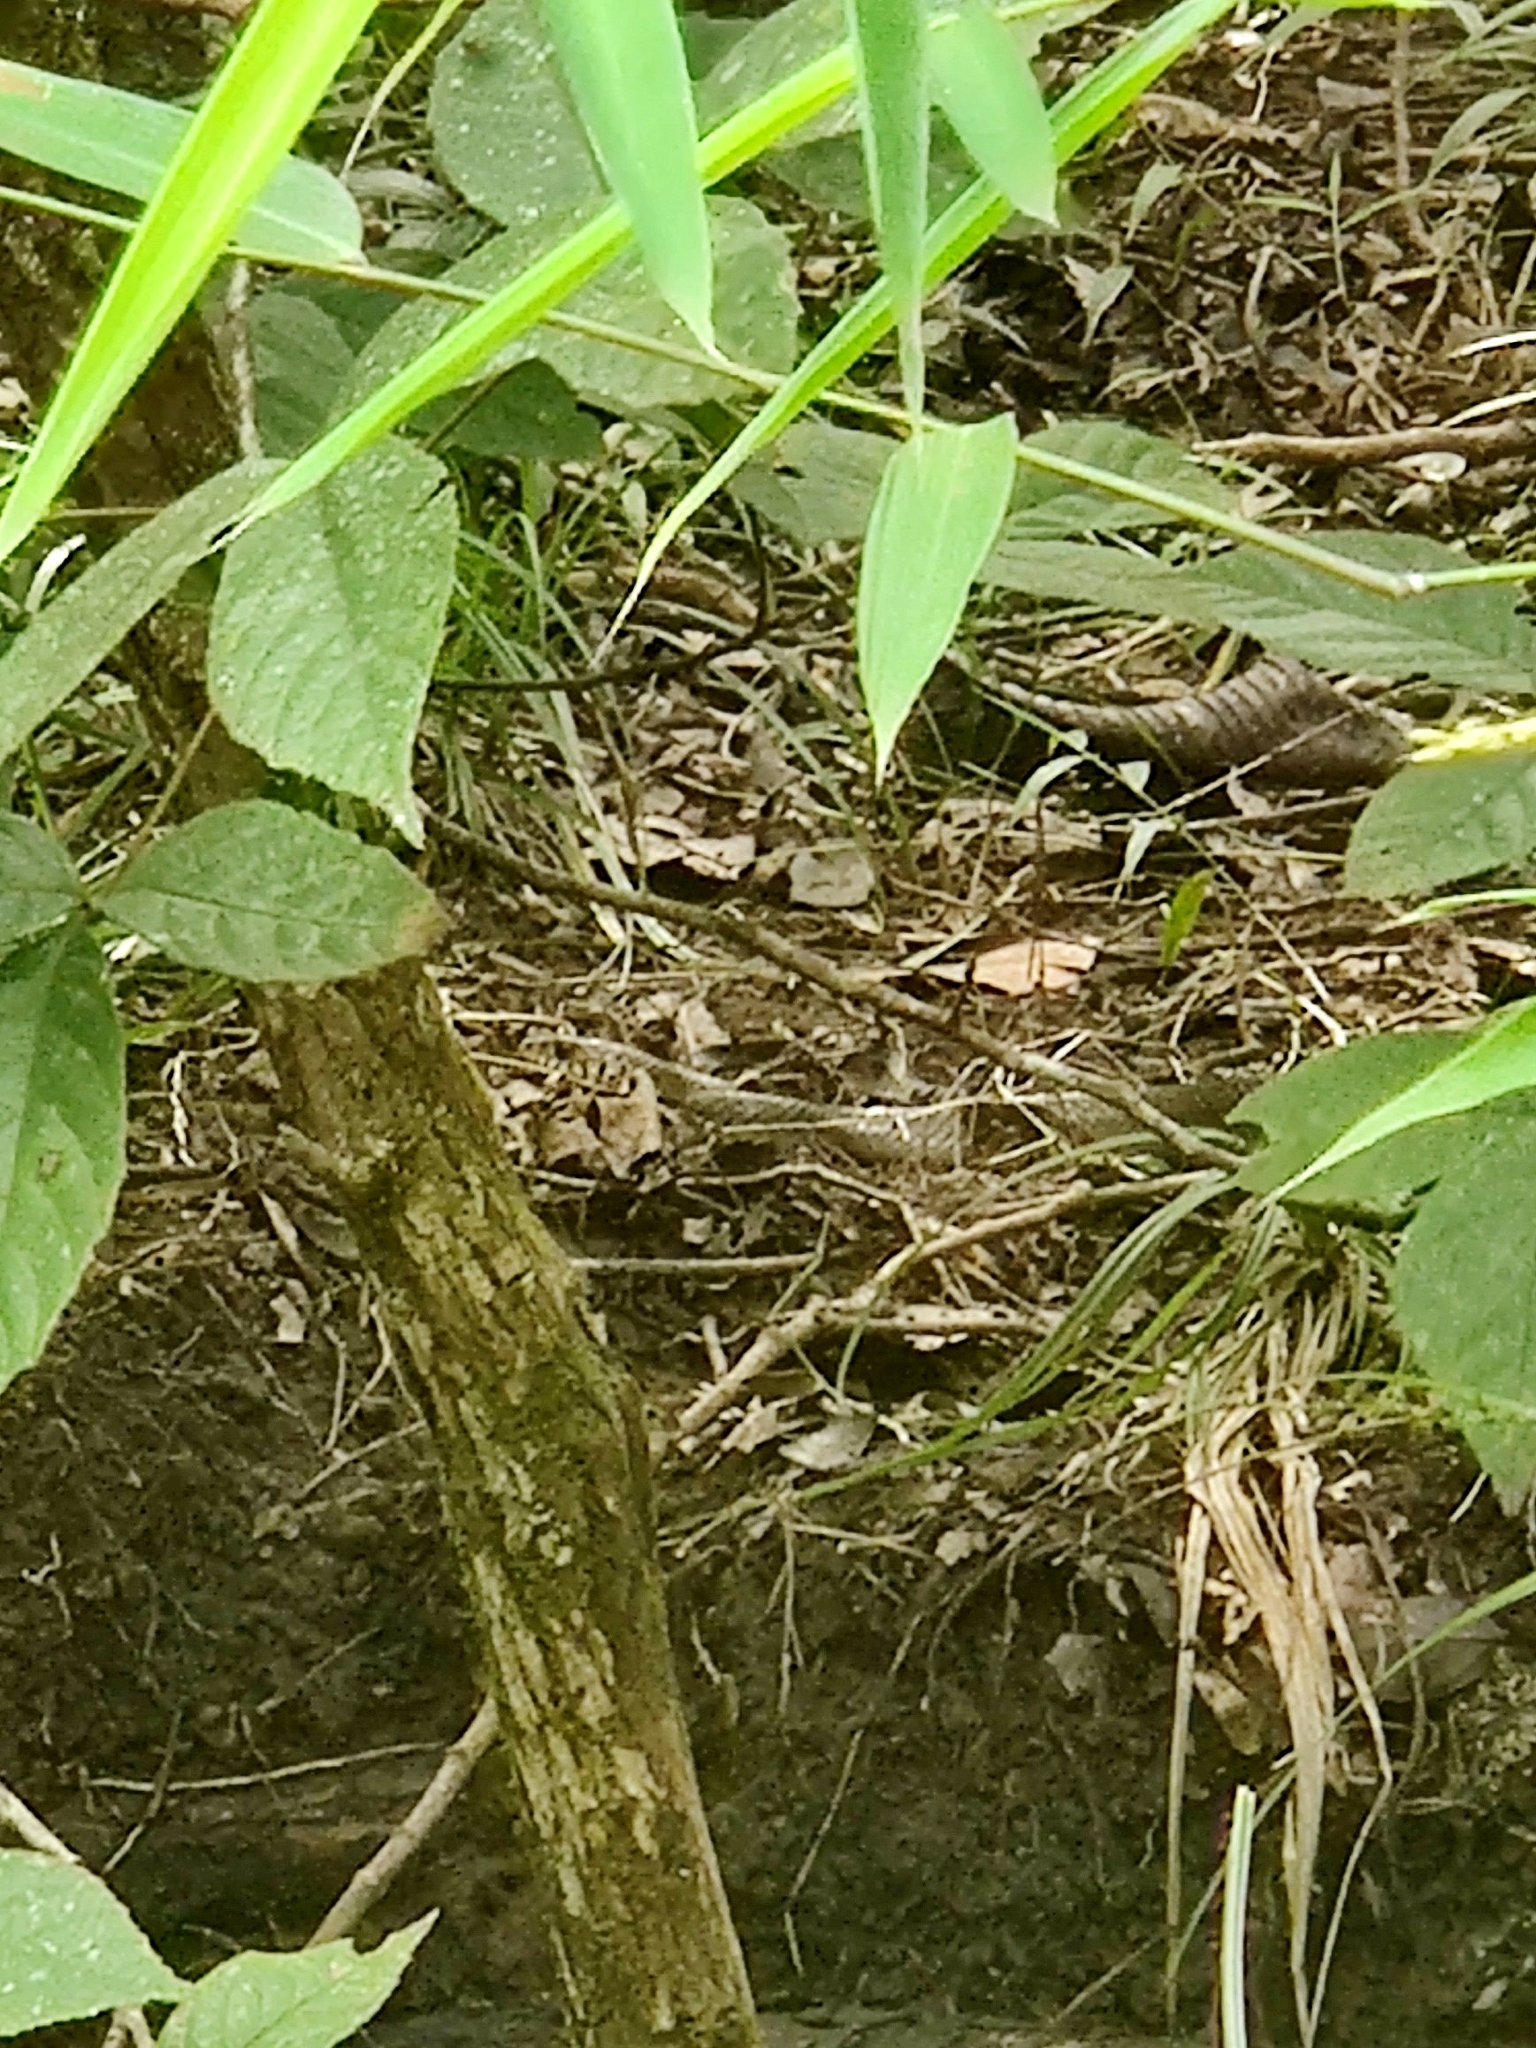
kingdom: Animalia
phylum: Chordata
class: Squamata
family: Colubridae
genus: Ptyas
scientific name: Ptyas mucosa
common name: Oriental ratsnake
